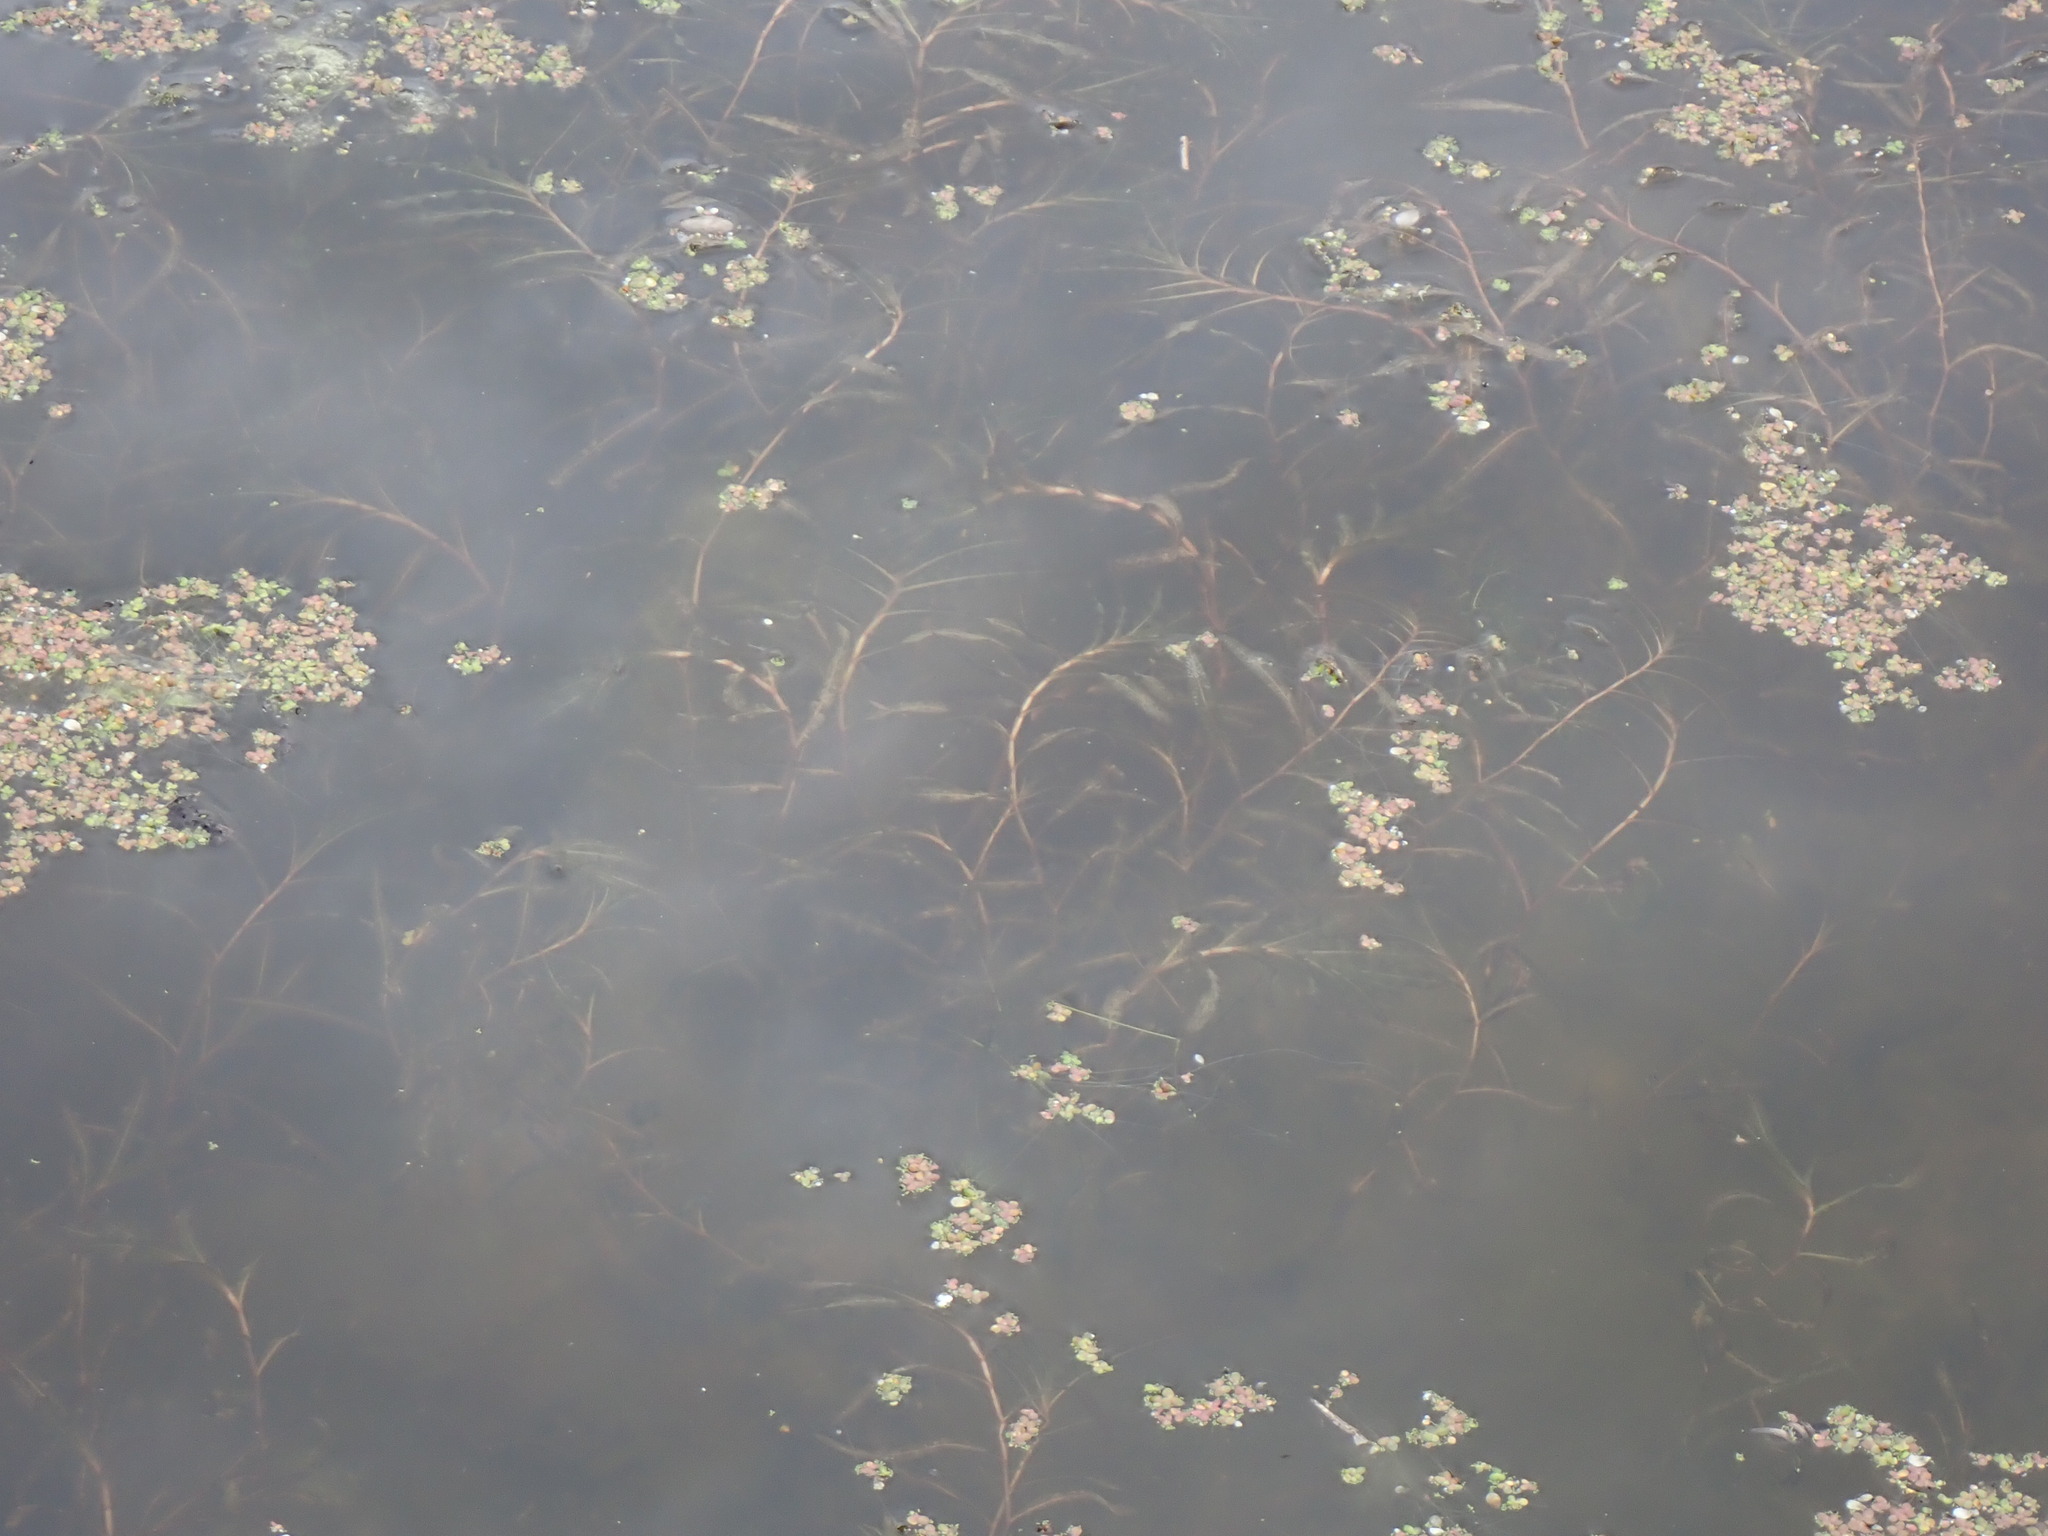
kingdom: Plantae
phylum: Tracheophyta
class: Liliopsida
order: Alismatales
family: Potamogetonaceae
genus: Potamogeton
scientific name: Potamogeton crispus
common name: Curled pondweed
